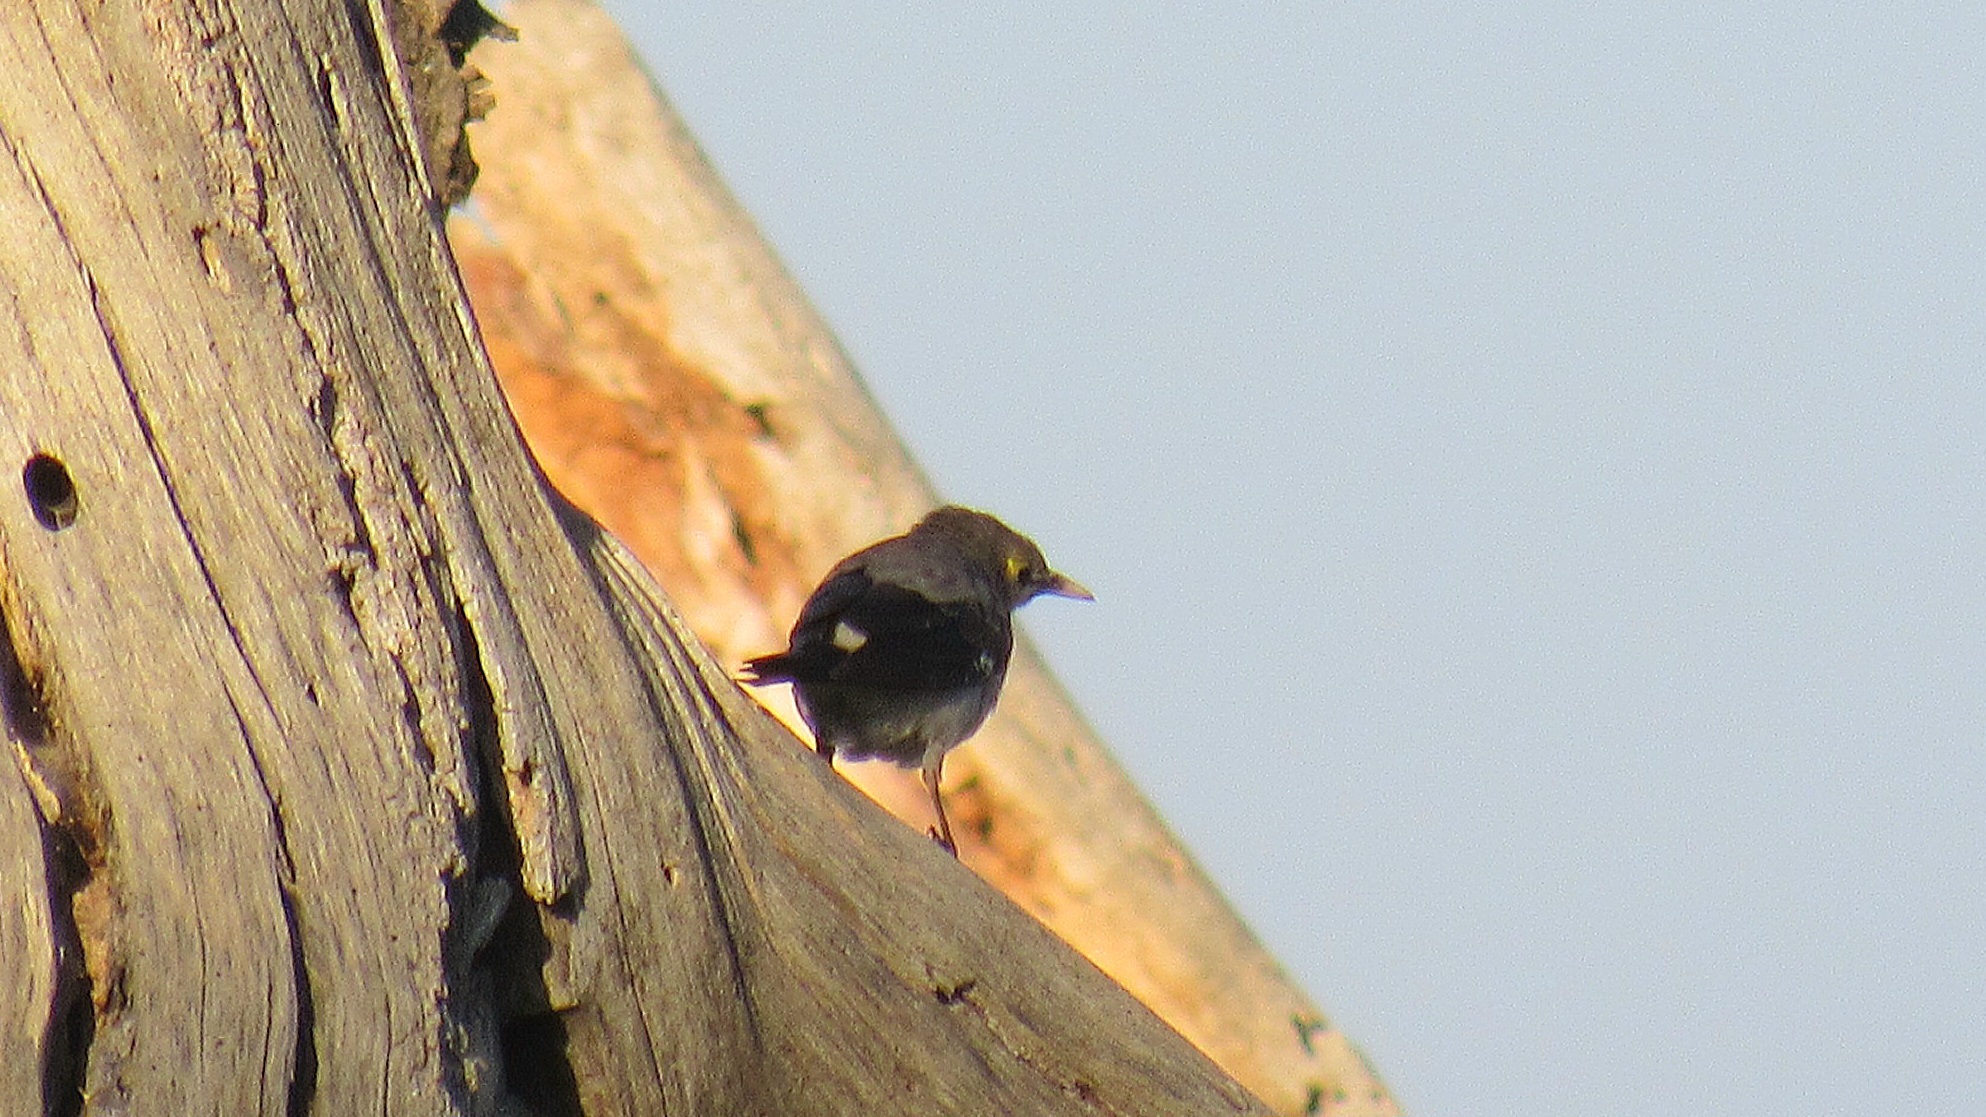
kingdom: Animalia
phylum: Chordata
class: Aves
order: Passeriformes
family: Sturnidae
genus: Creatophora
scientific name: Creatophora cinerea
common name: Wattled starling
